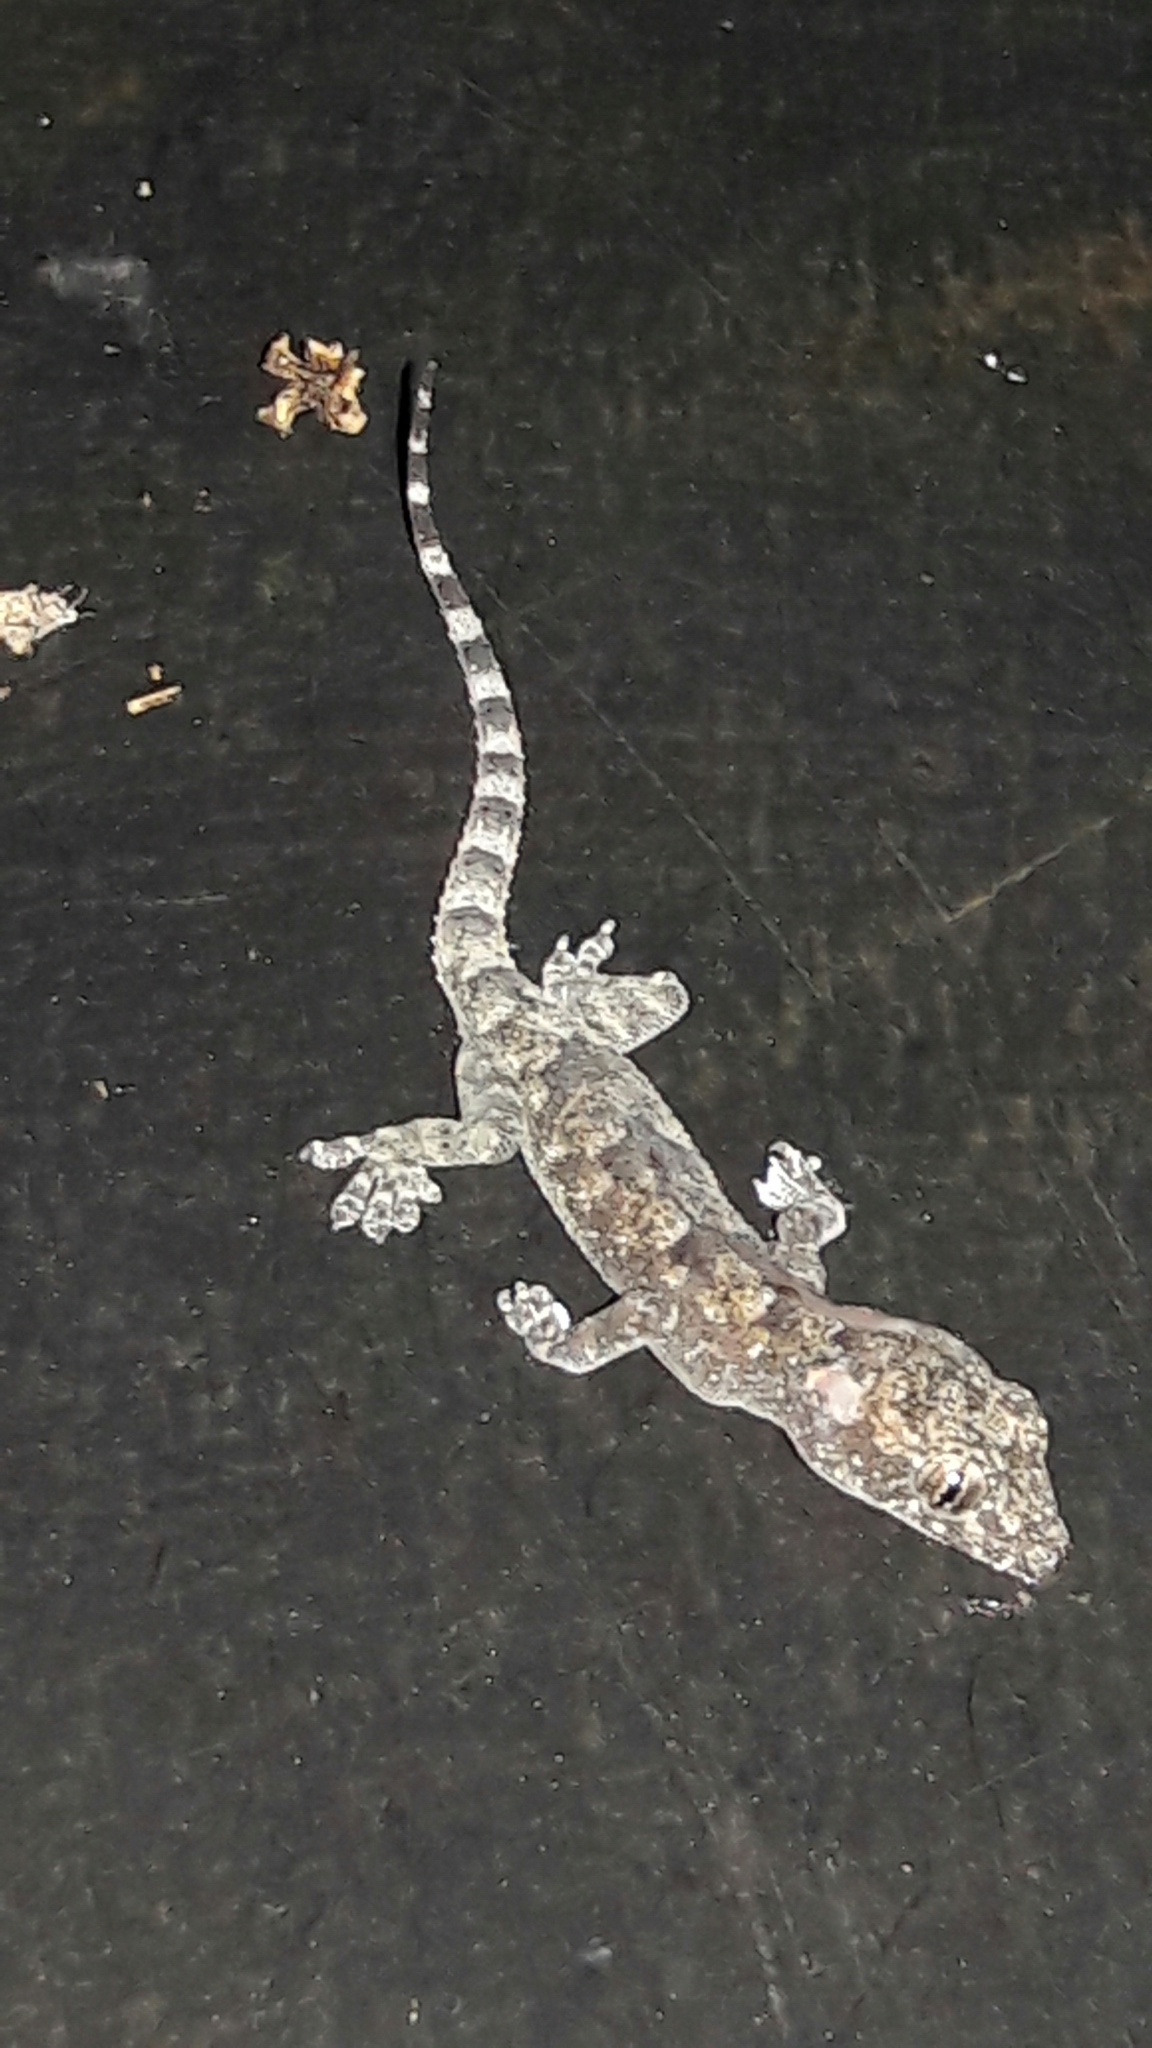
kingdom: Animalia
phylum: Chordata
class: Squamata
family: Gekkonidae
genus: Hemidactylus
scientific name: Hemidactylus mabouia
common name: House gecko
